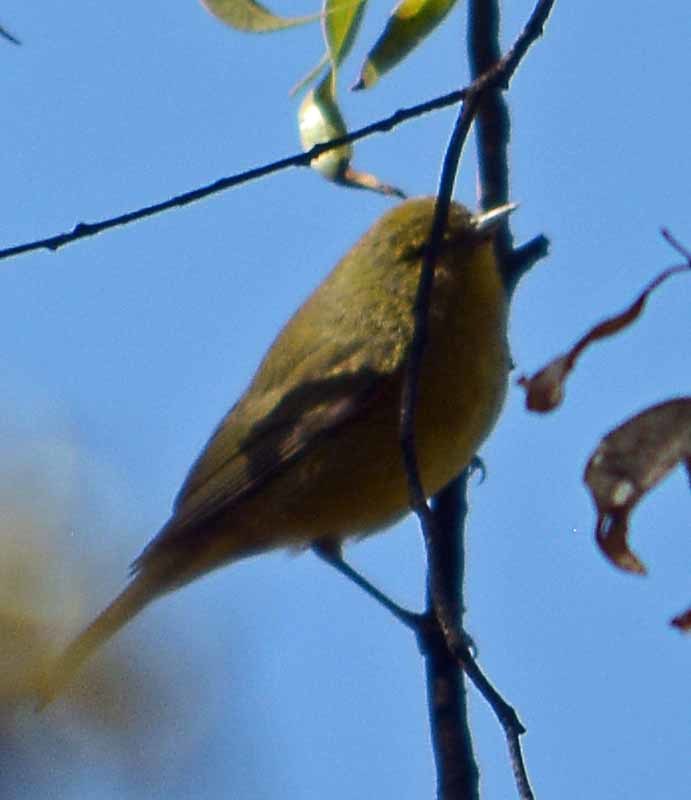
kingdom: Animalia
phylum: Chordata
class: Aves
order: Passeriformes
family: Parulidae
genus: Leiothlypis
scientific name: Leiothlypis celata
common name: Orange-crowned warbler
